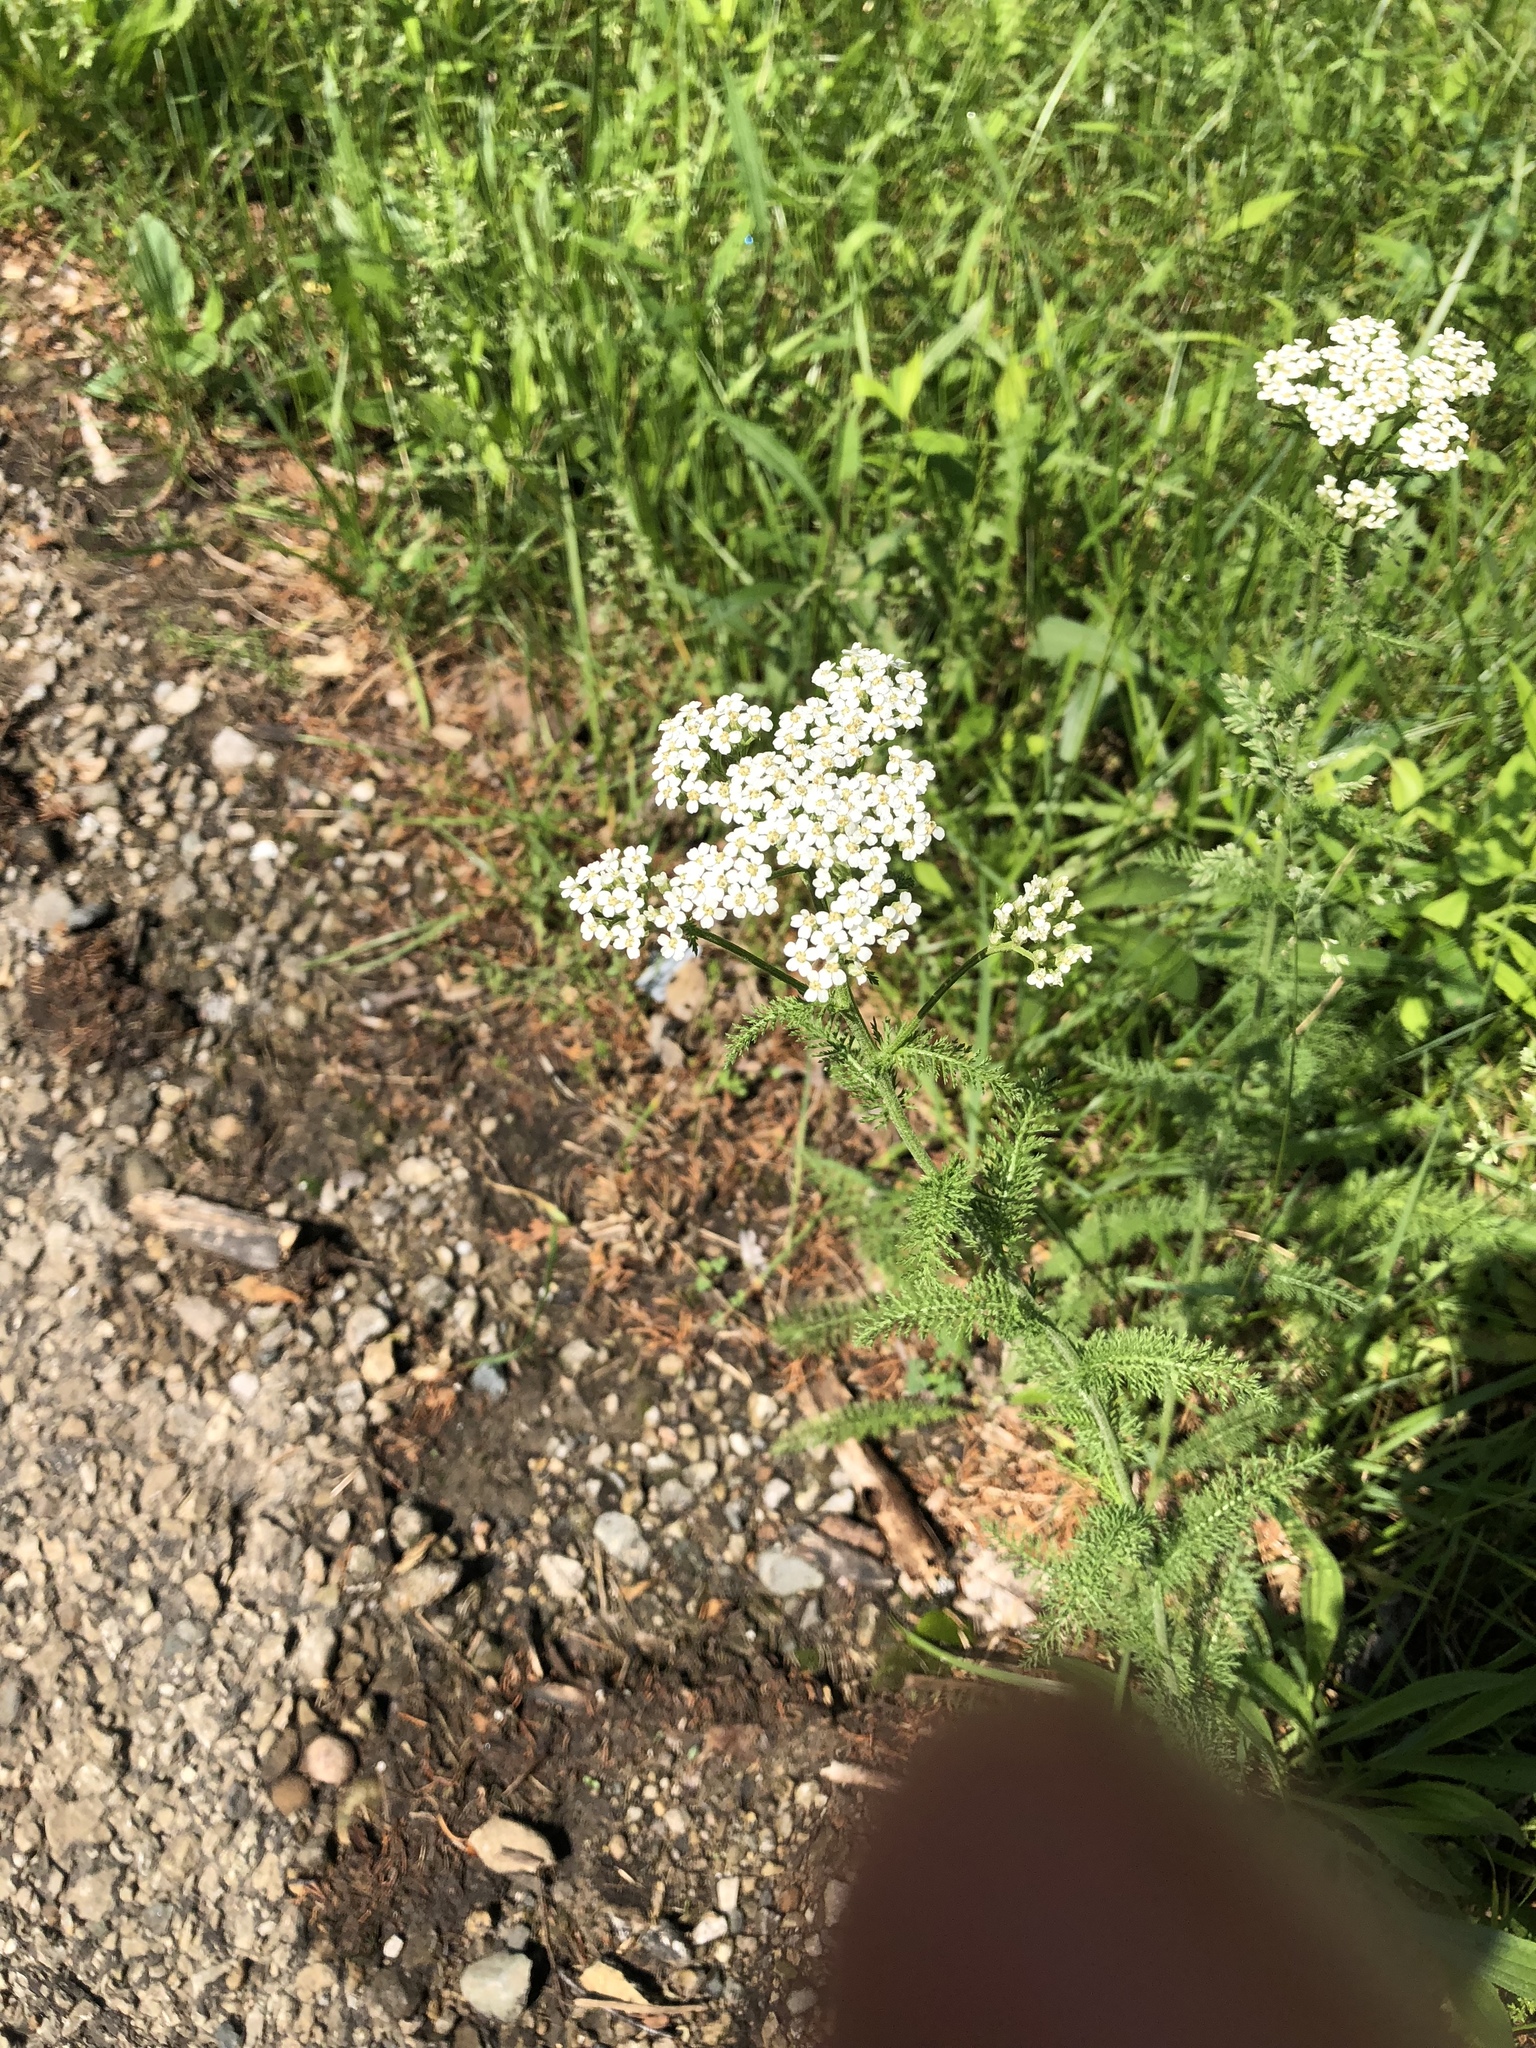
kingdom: Plantae
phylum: Tracheophyta
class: Magnoliopsida
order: Asterales
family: Asteraceae
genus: Achillea
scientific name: Achillea millefolium
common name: Yarrow
